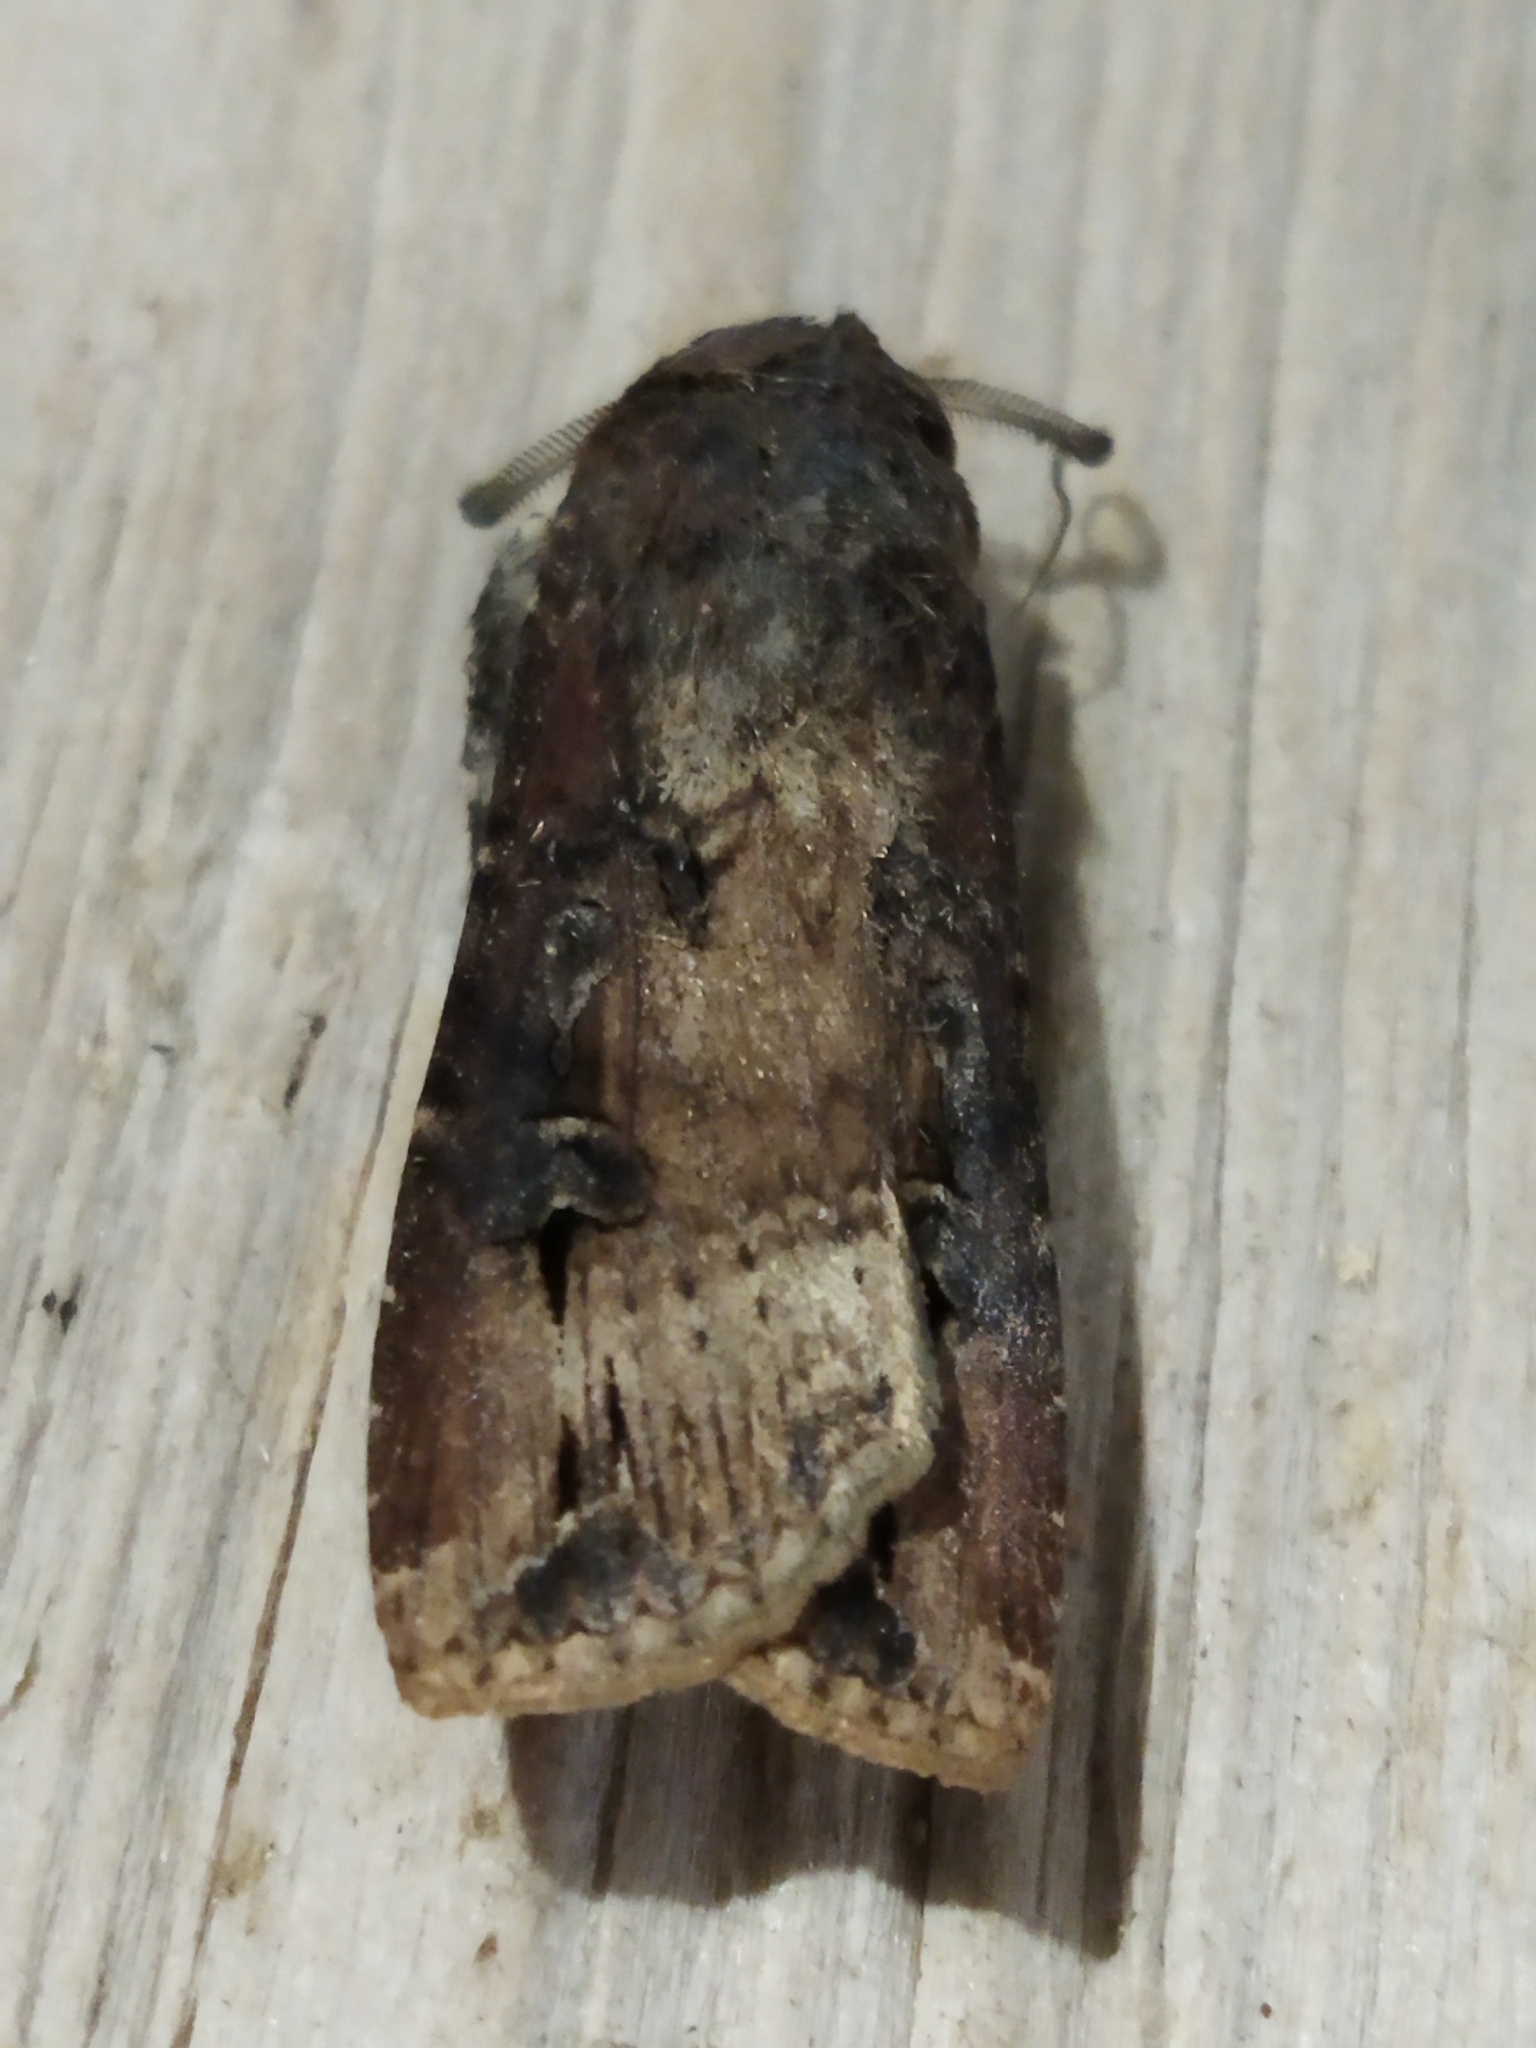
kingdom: Animalia
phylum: Arthropoda
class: Insecta
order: Lepidoptera
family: Noctuidae
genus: Agrotis
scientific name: Agrotis ipsilon
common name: Dark sword-grass
